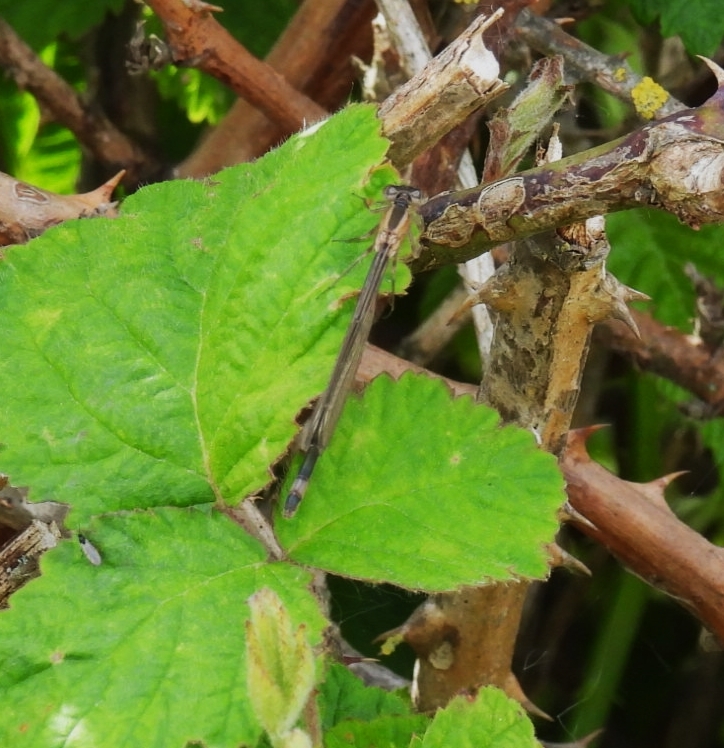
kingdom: Animalia
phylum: Arthropoda
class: Insecta
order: Odonata
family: Coenagrionidae
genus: Ischnura
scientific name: Ischnura elegans
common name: Blue-tailed damselfly
